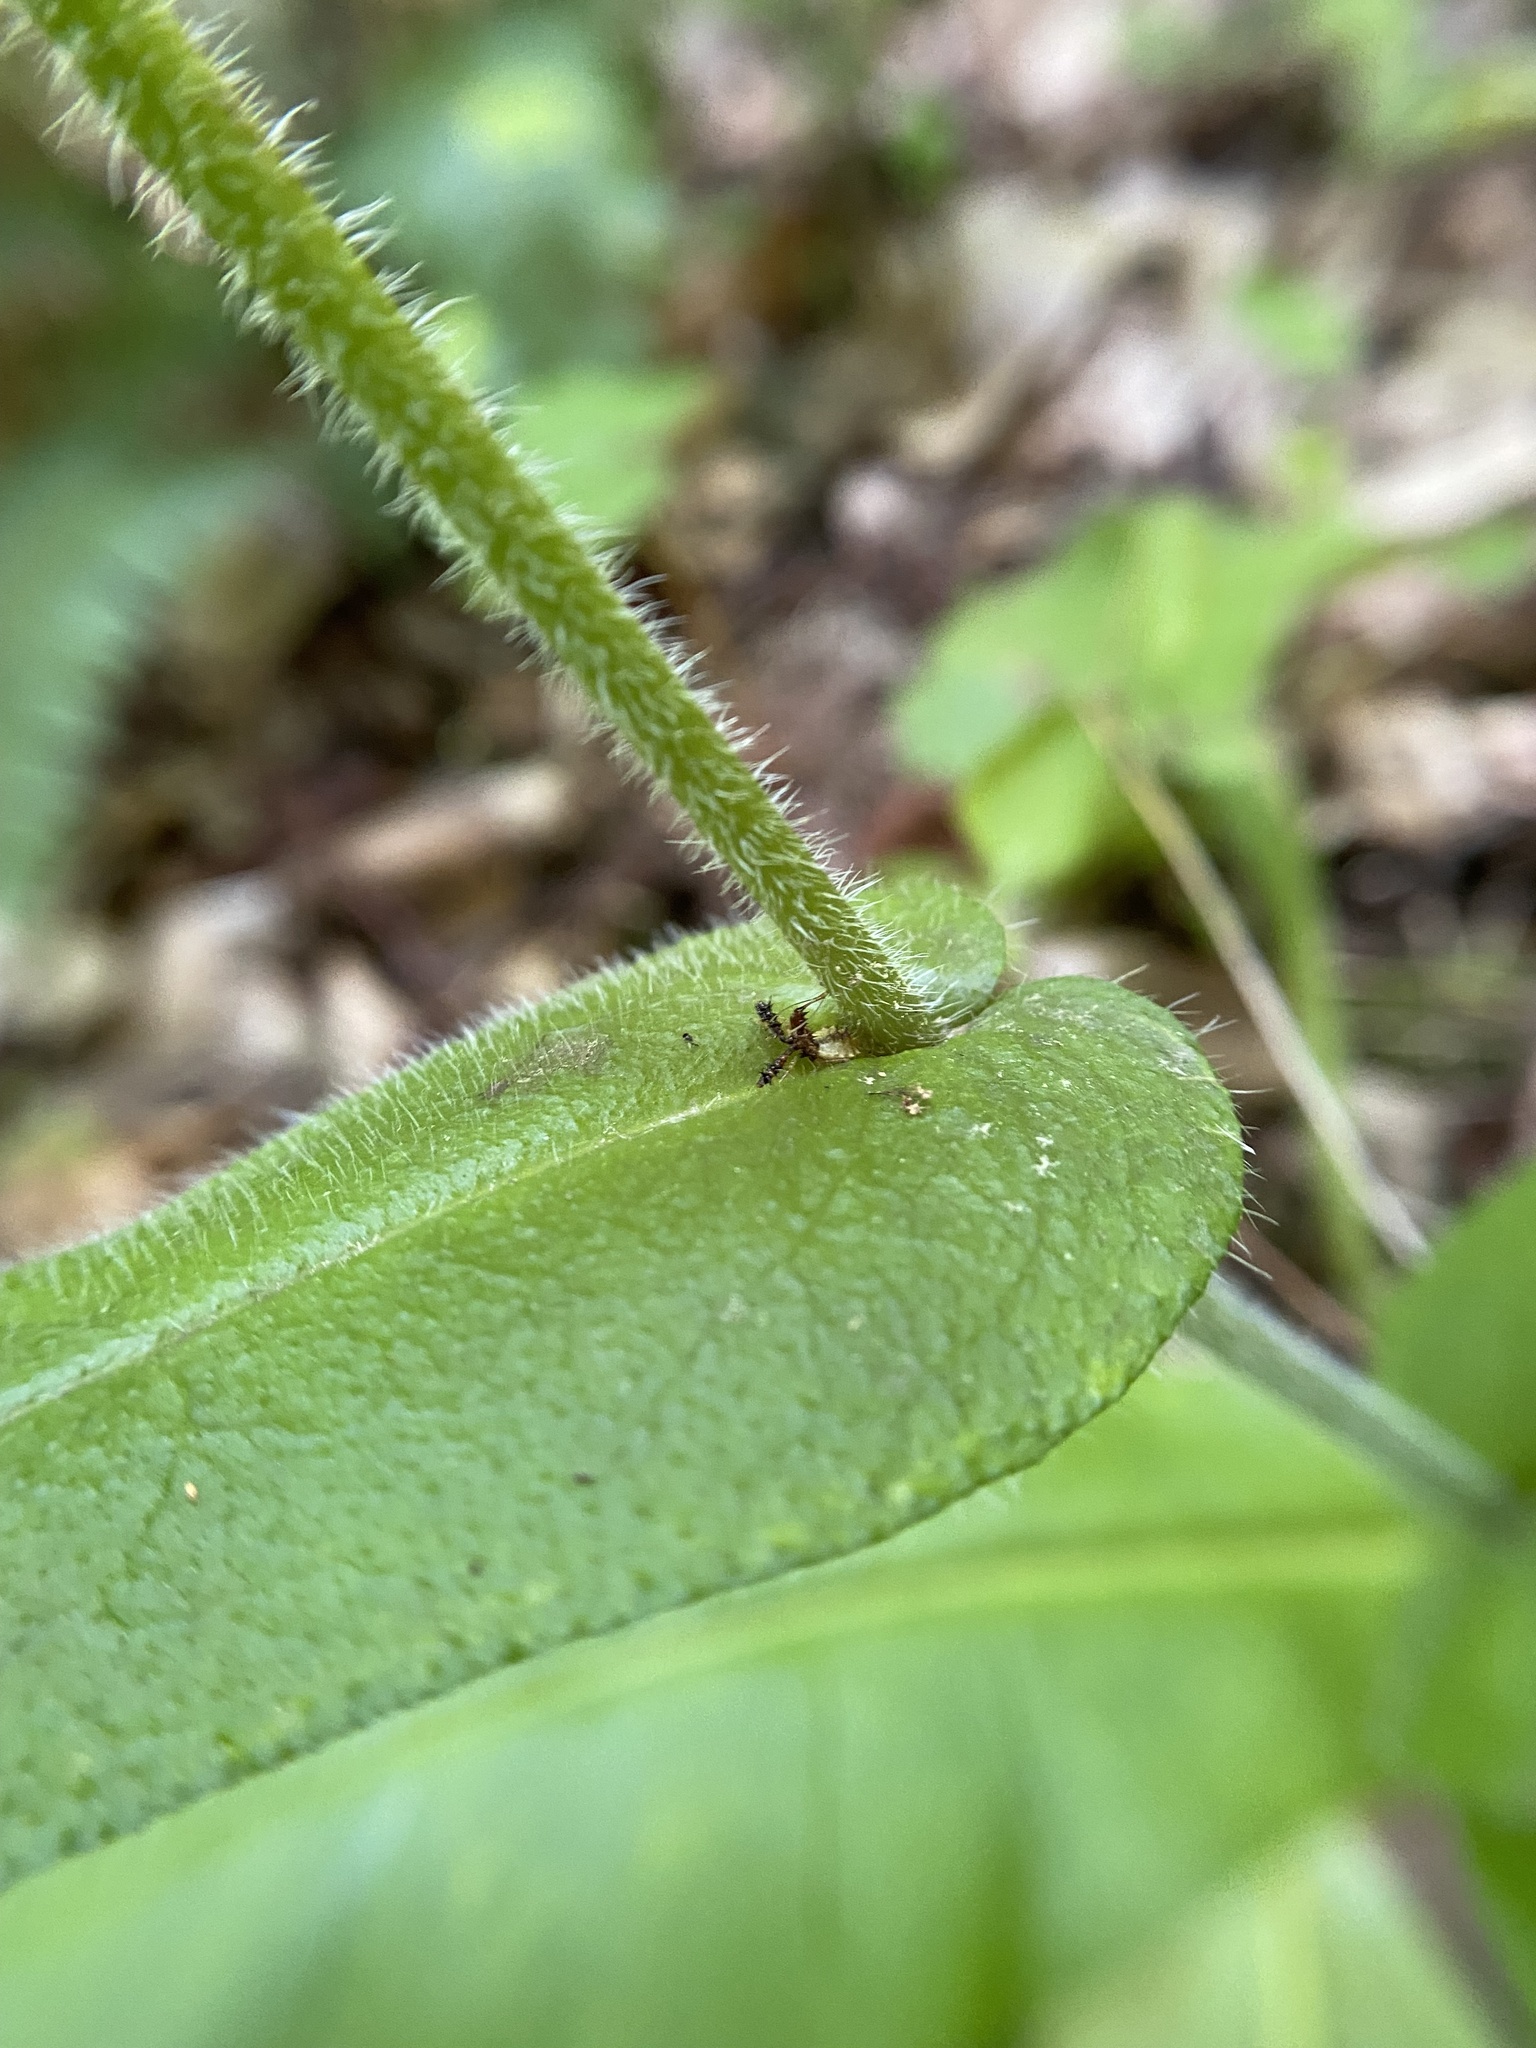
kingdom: Plantae
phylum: Tracheophyta
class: Magnoliopsida
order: Boraginales
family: Boraginaceae
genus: Andersonglossum
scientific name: Andersonglossum virginianum
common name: Wild comfrey
